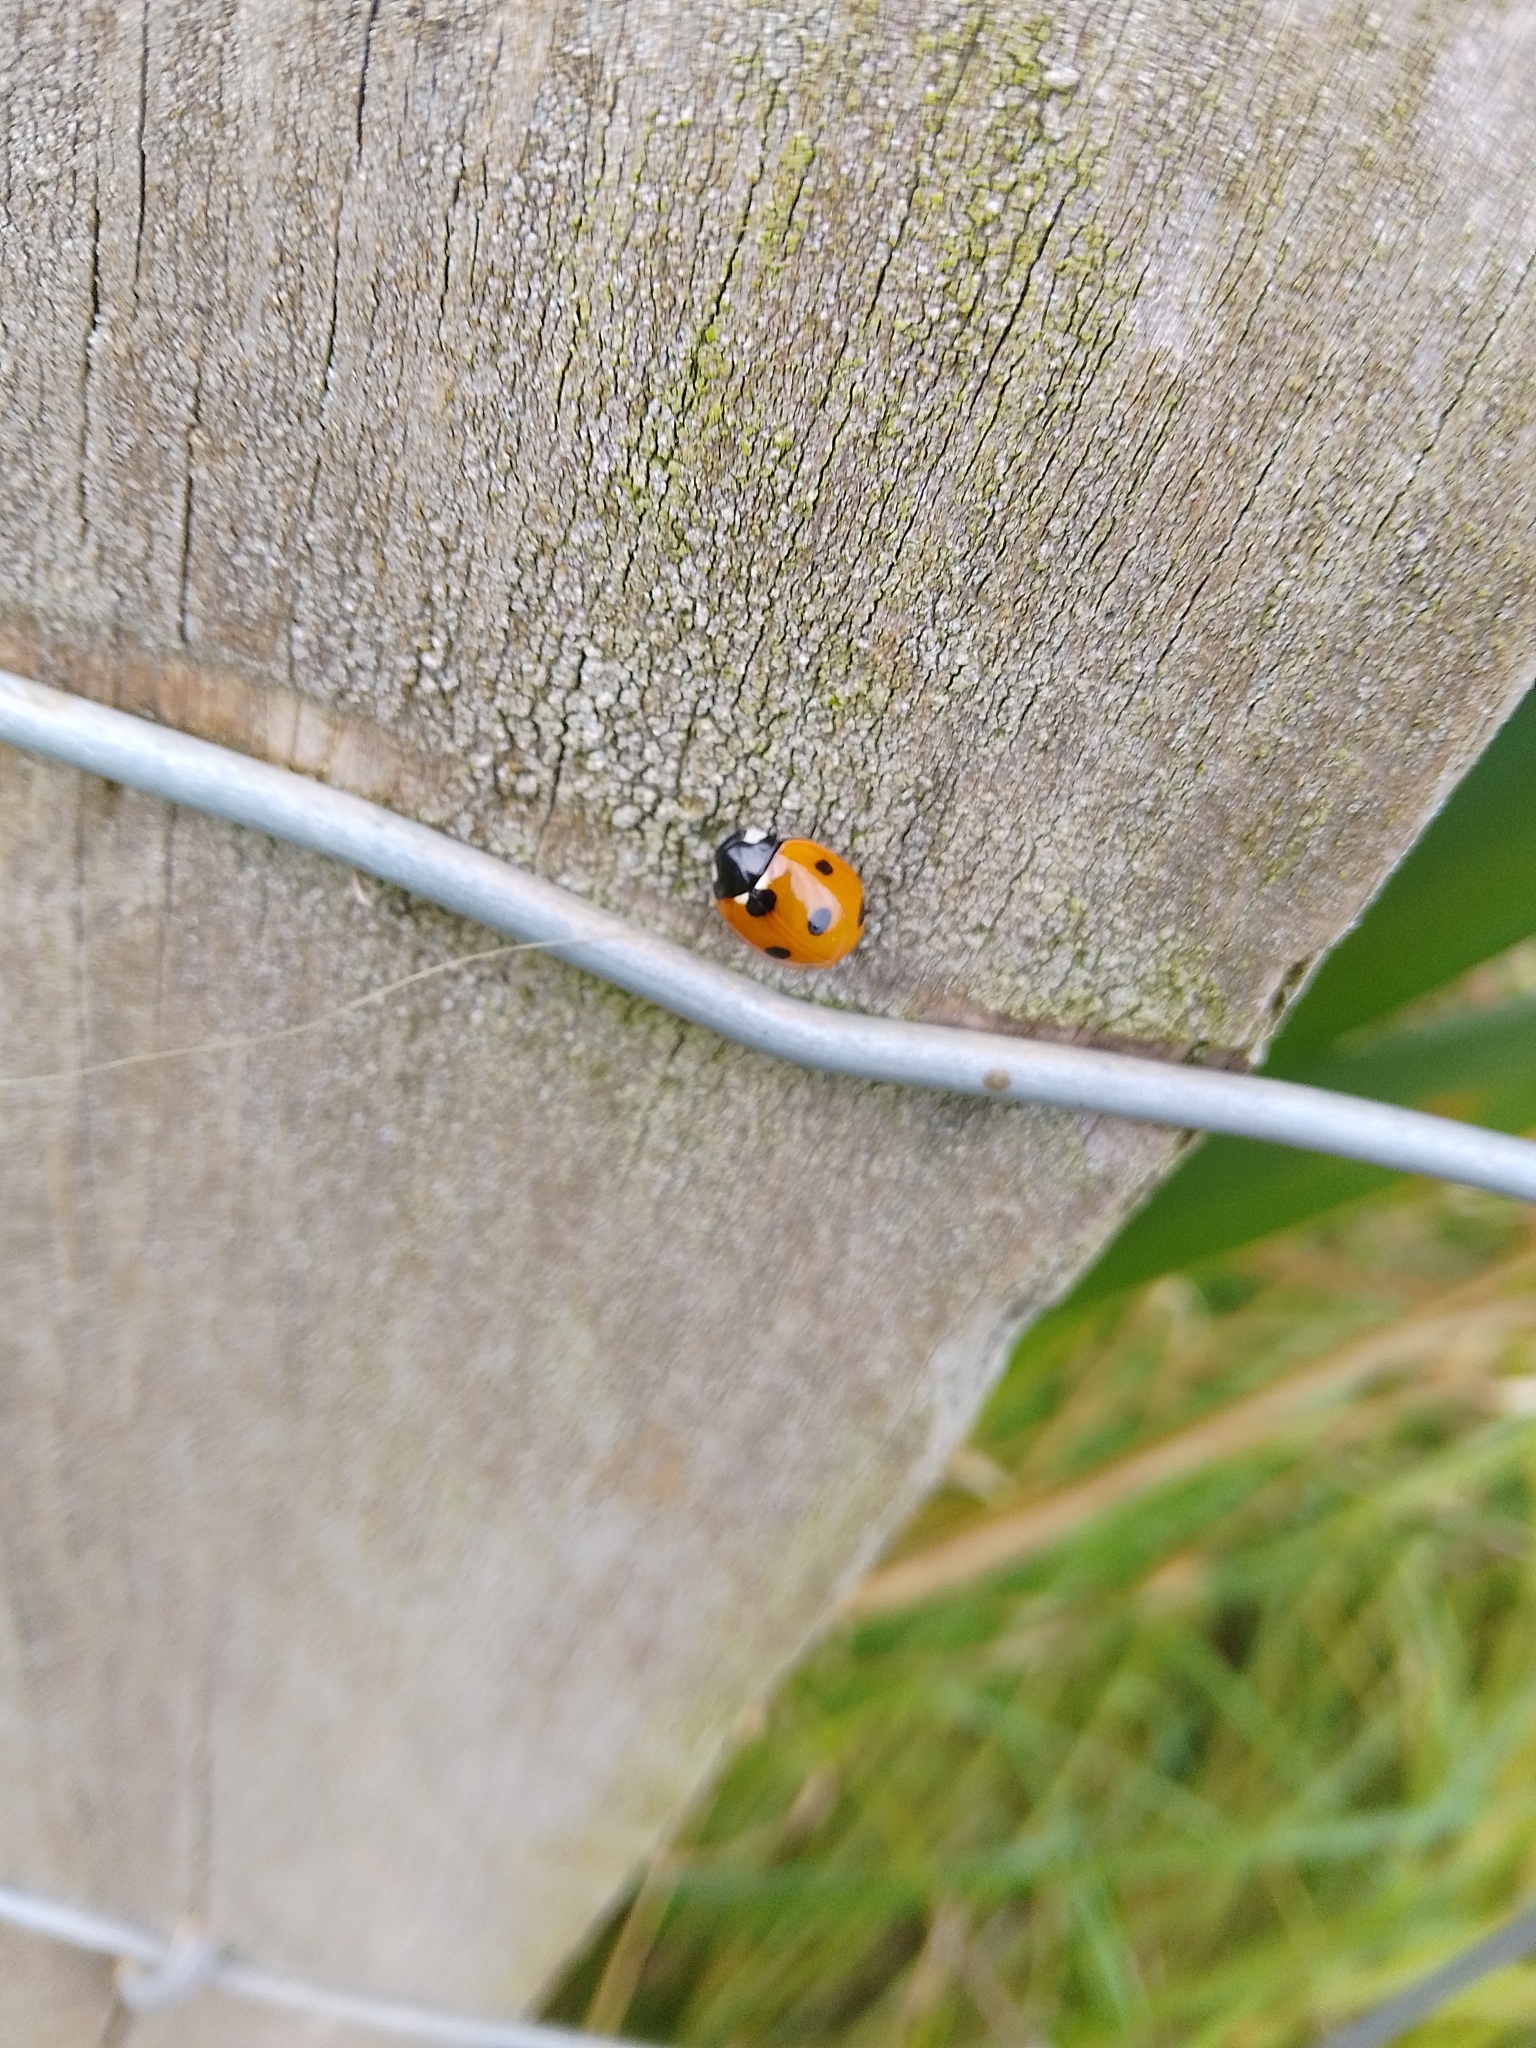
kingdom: Animalia
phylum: Arthropoda
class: Insecta
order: Coleoptera
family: Coccinellidae
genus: Coccinella
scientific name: Coccinella septempunctata
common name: Sevenspotted lady beetle
